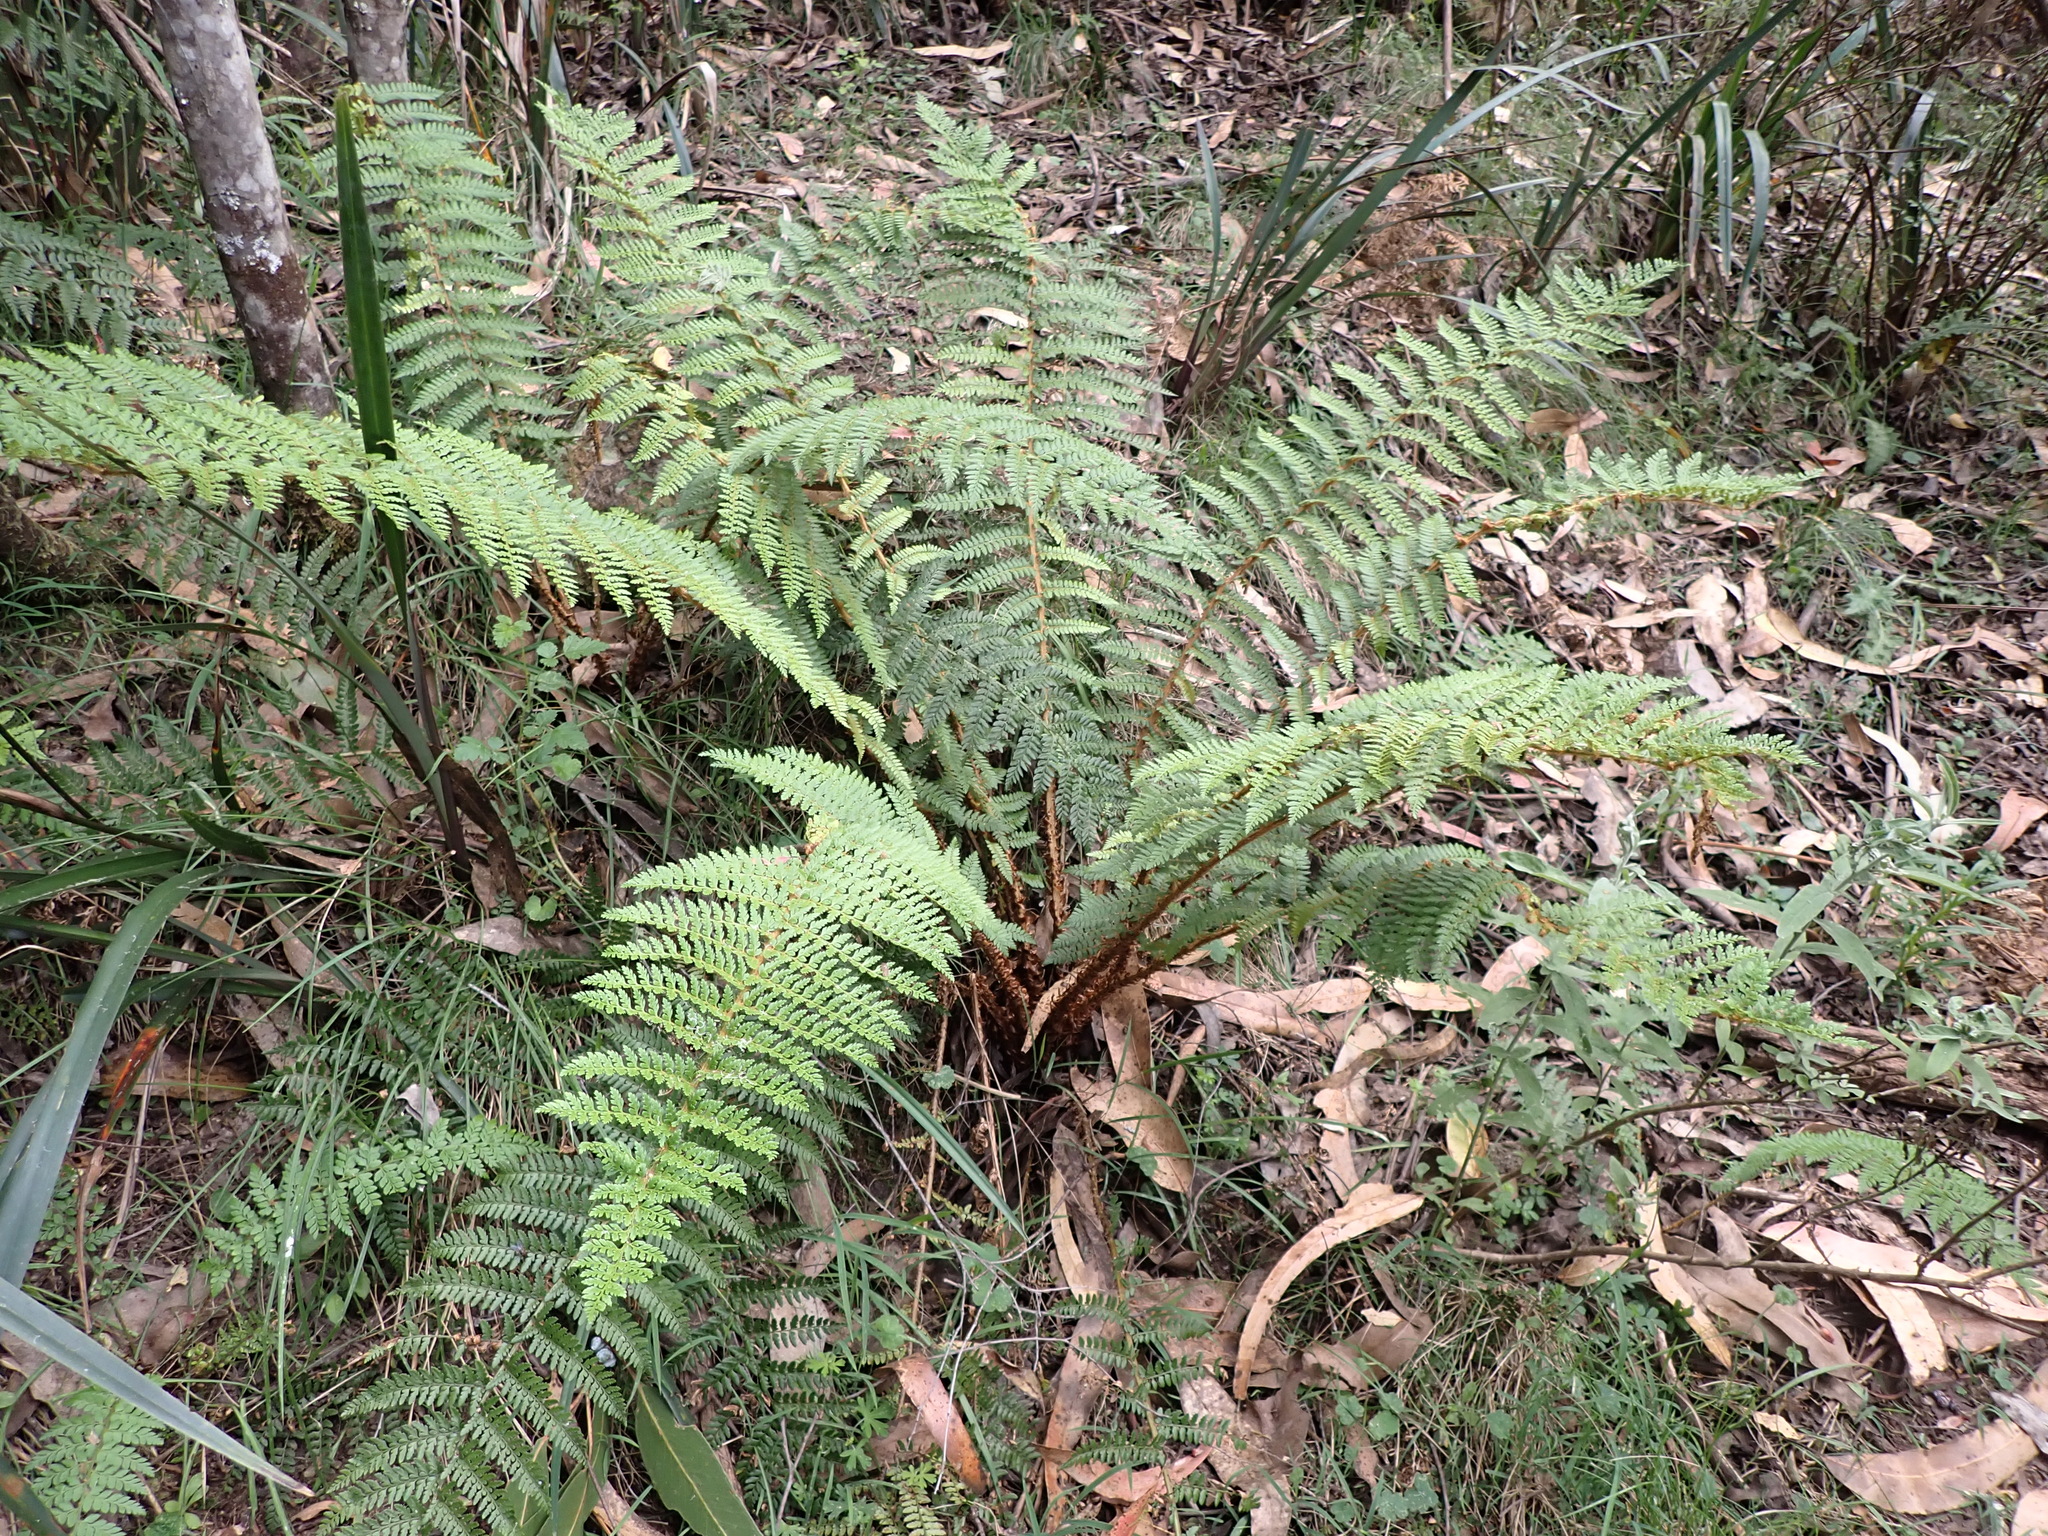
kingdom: Plantae
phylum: Tracheophyta
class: Polypodiopsida
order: Polypodiales
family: Dryopteridaceae
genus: Polystichum
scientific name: Polystichum proliferum
